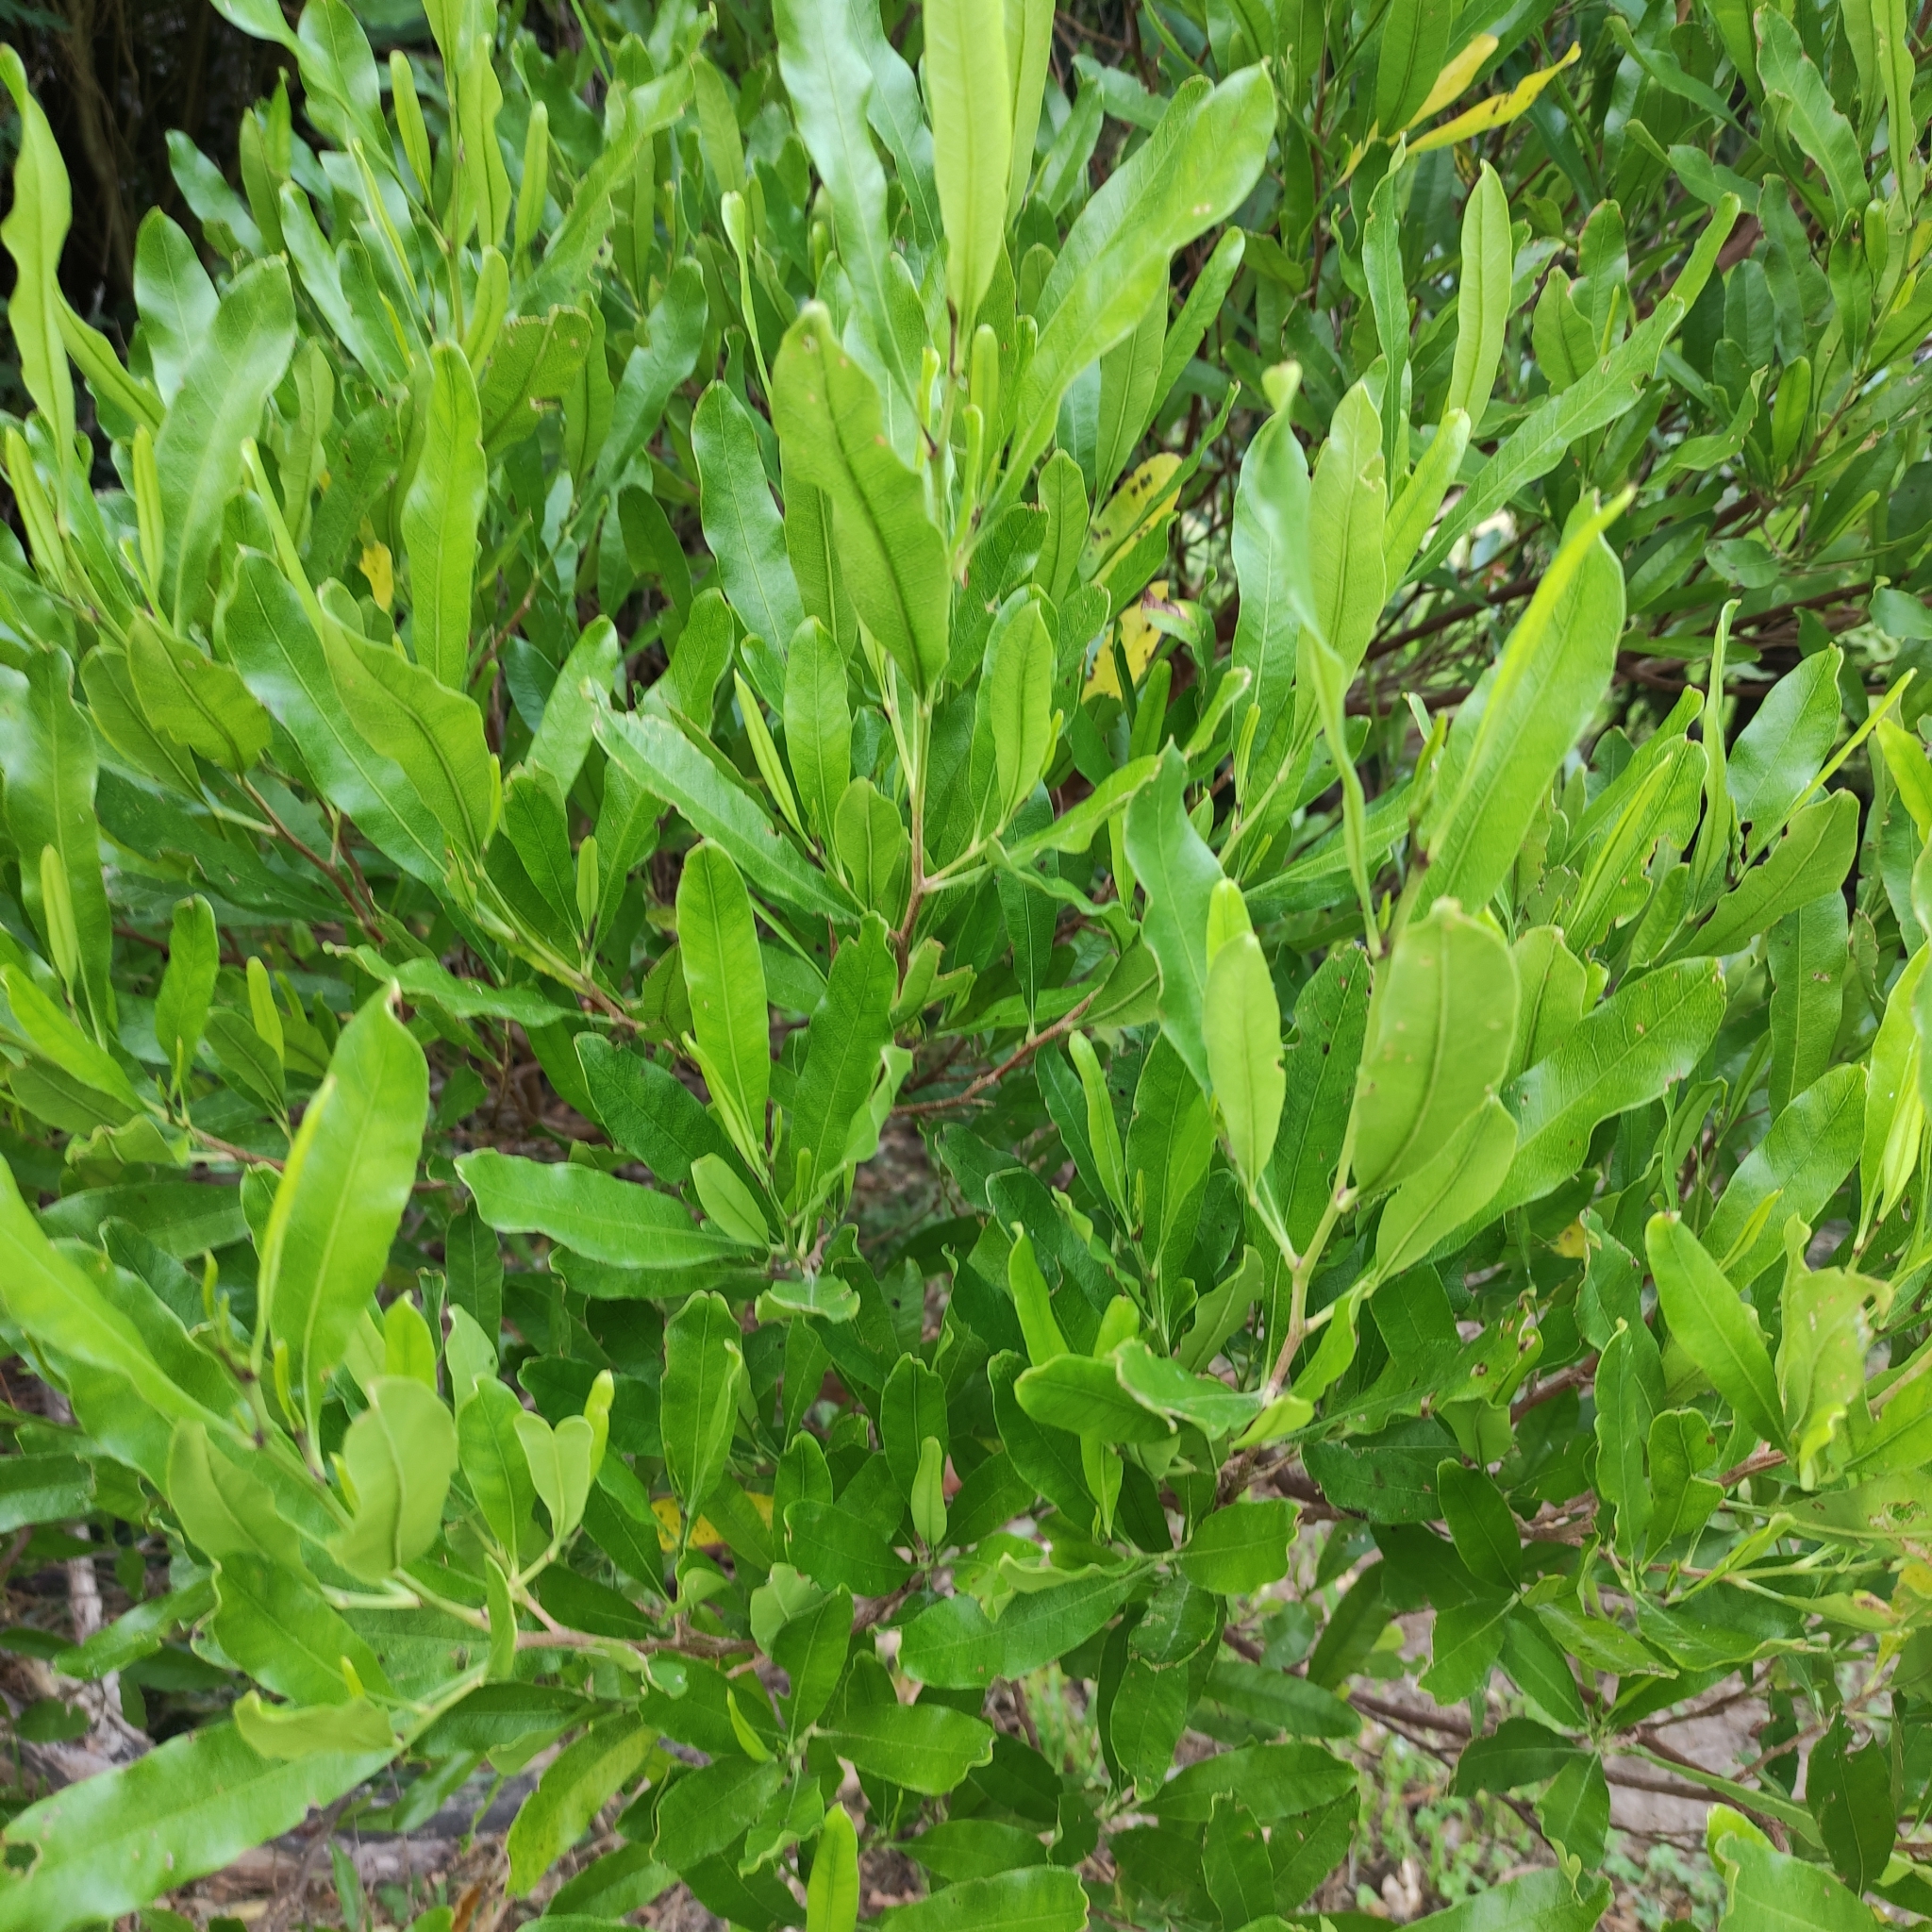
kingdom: Plantae
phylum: Tracheophyta
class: Magnoliopsida
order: Sapindales
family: Sapindaceae
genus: Dodonaea
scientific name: Dodonaea viscosa
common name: Hopbush
